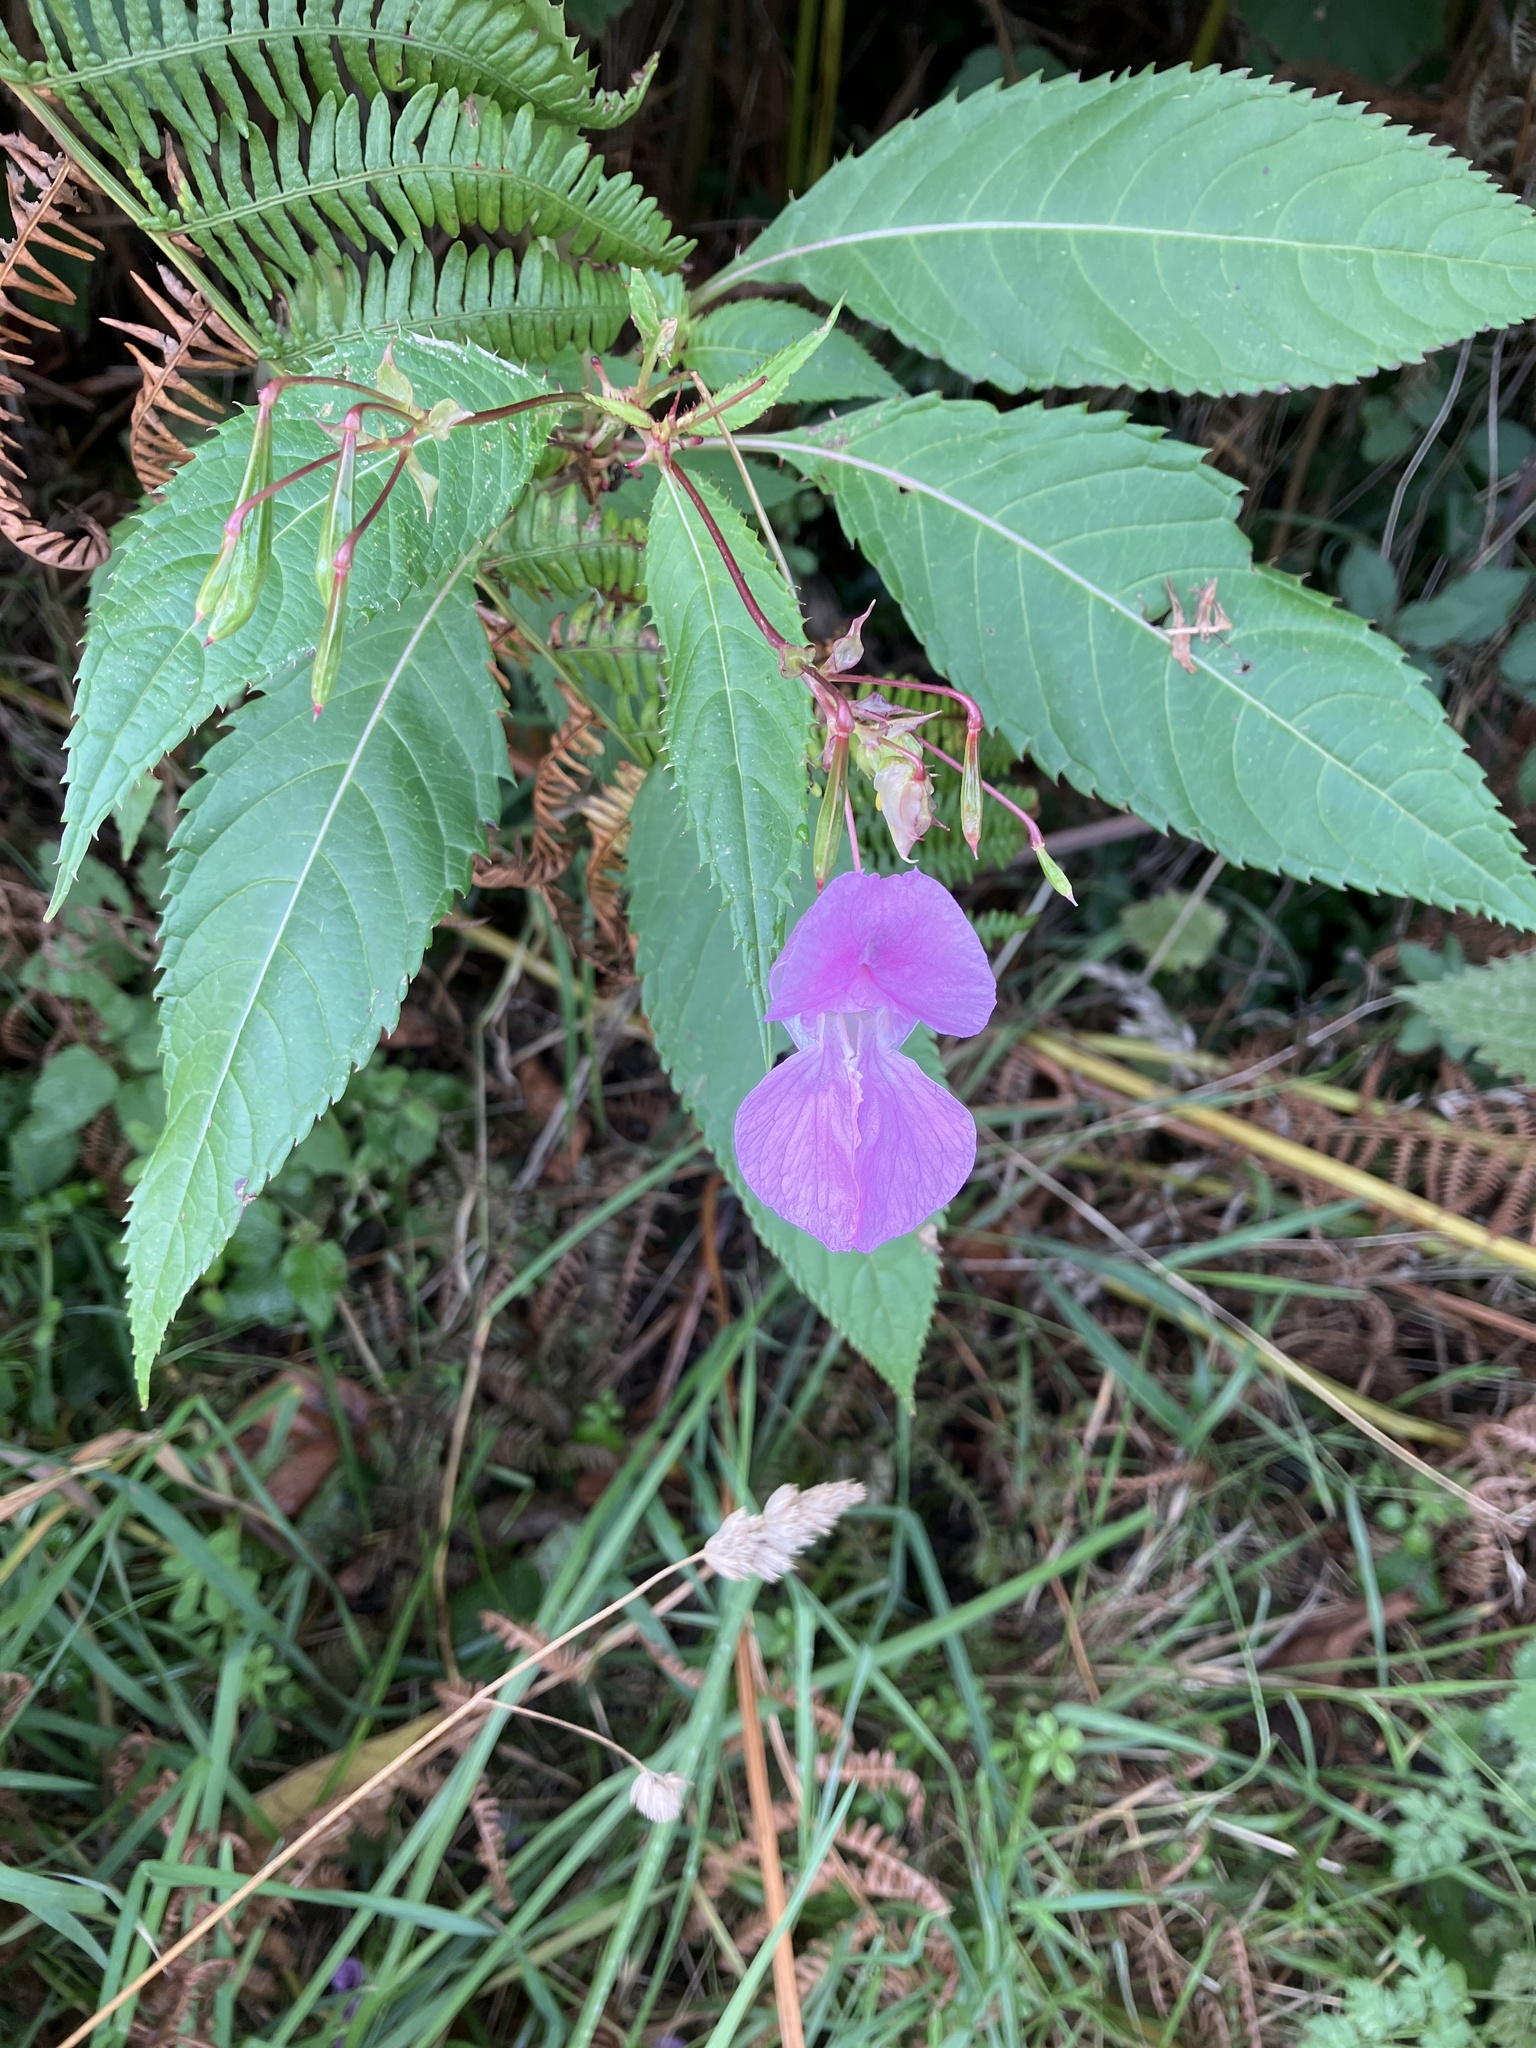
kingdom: Plantae
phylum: Tracheophyta
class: Magnoliopsida
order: Ericales
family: Balsaminaceae
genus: Impatiens
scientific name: Impatiens glandulifera
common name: Himalayan balsam
